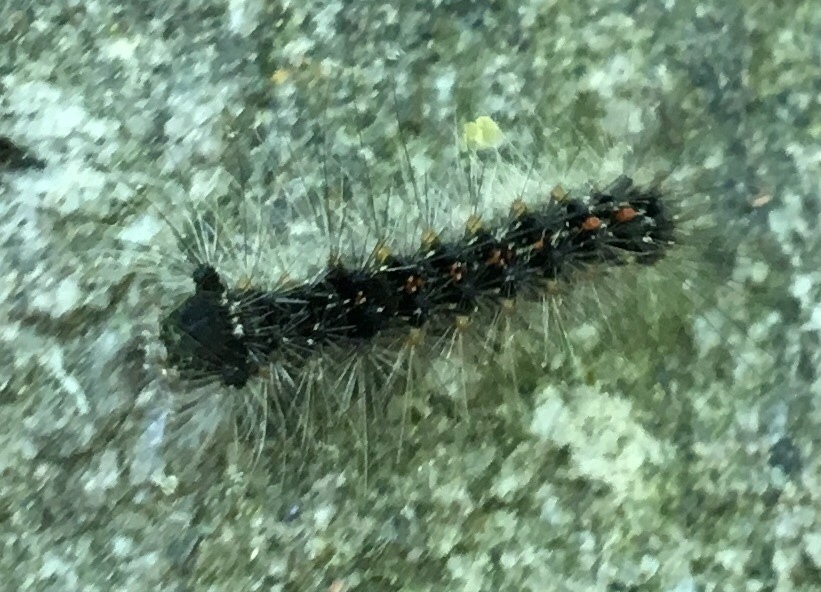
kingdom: Animalia
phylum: Arthropoda
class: Insecta
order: Lepidoptera
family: Erebidae
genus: Lymantria
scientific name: Lymantria dispar
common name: Gypsy moth
